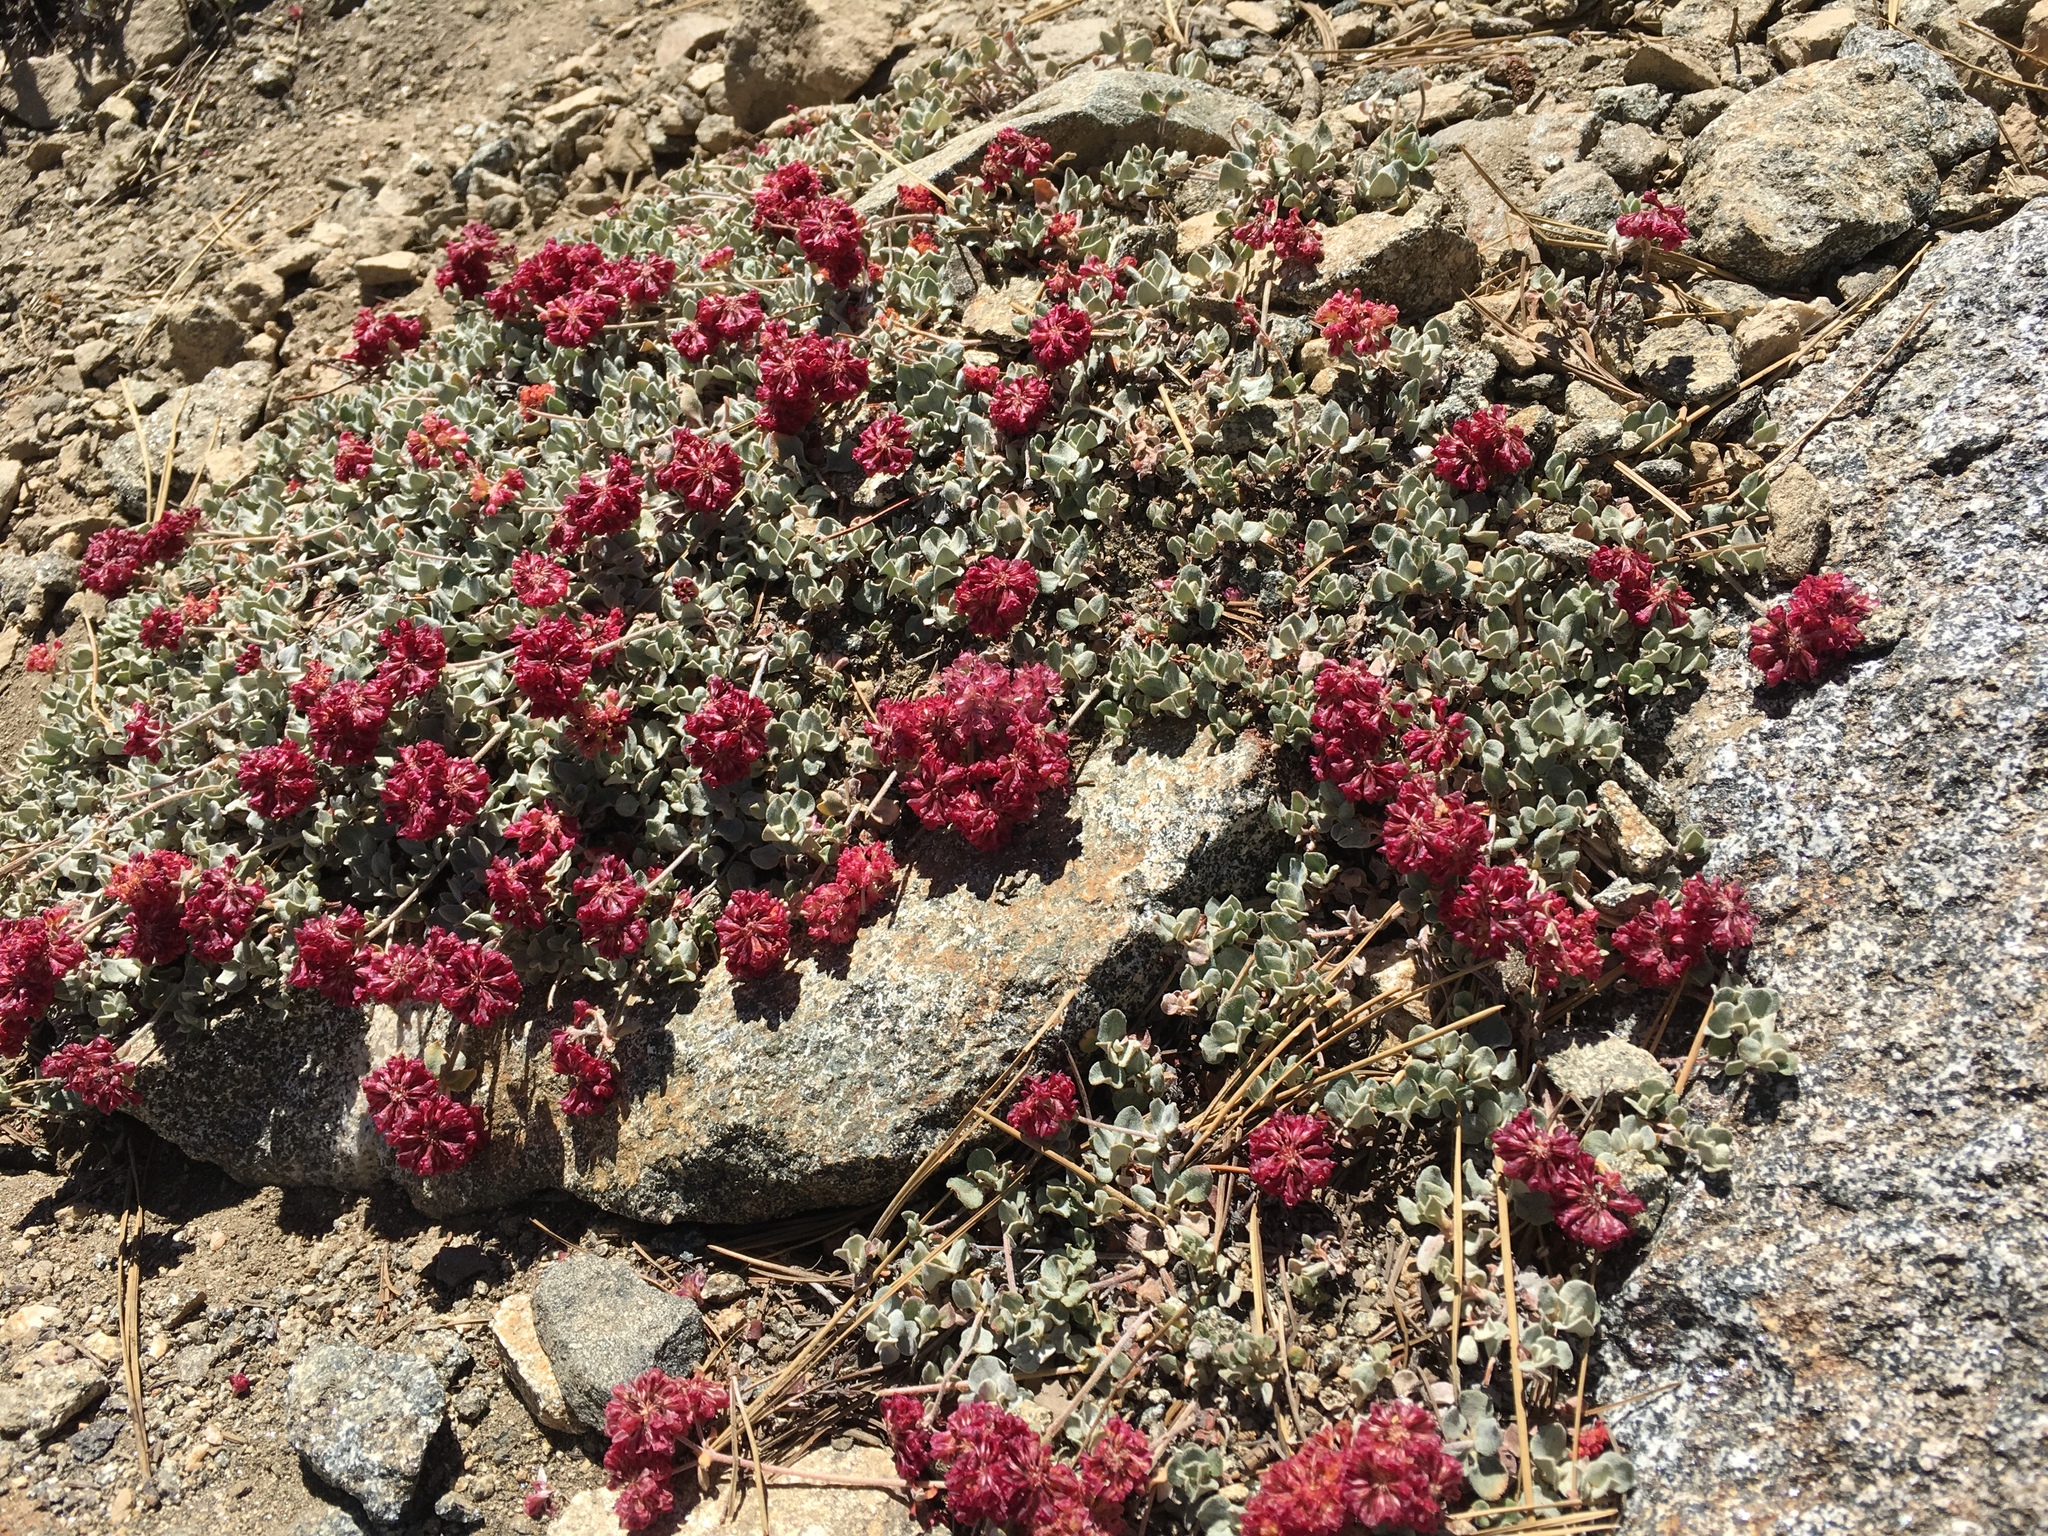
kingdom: Plantae
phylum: Tracheophyta
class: Magnoliopsida
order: Caryophyllales
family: Polygonaceae
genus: Eriogonum
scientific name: Eriogonum umbellatum
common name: Sulfur-buckwheat
